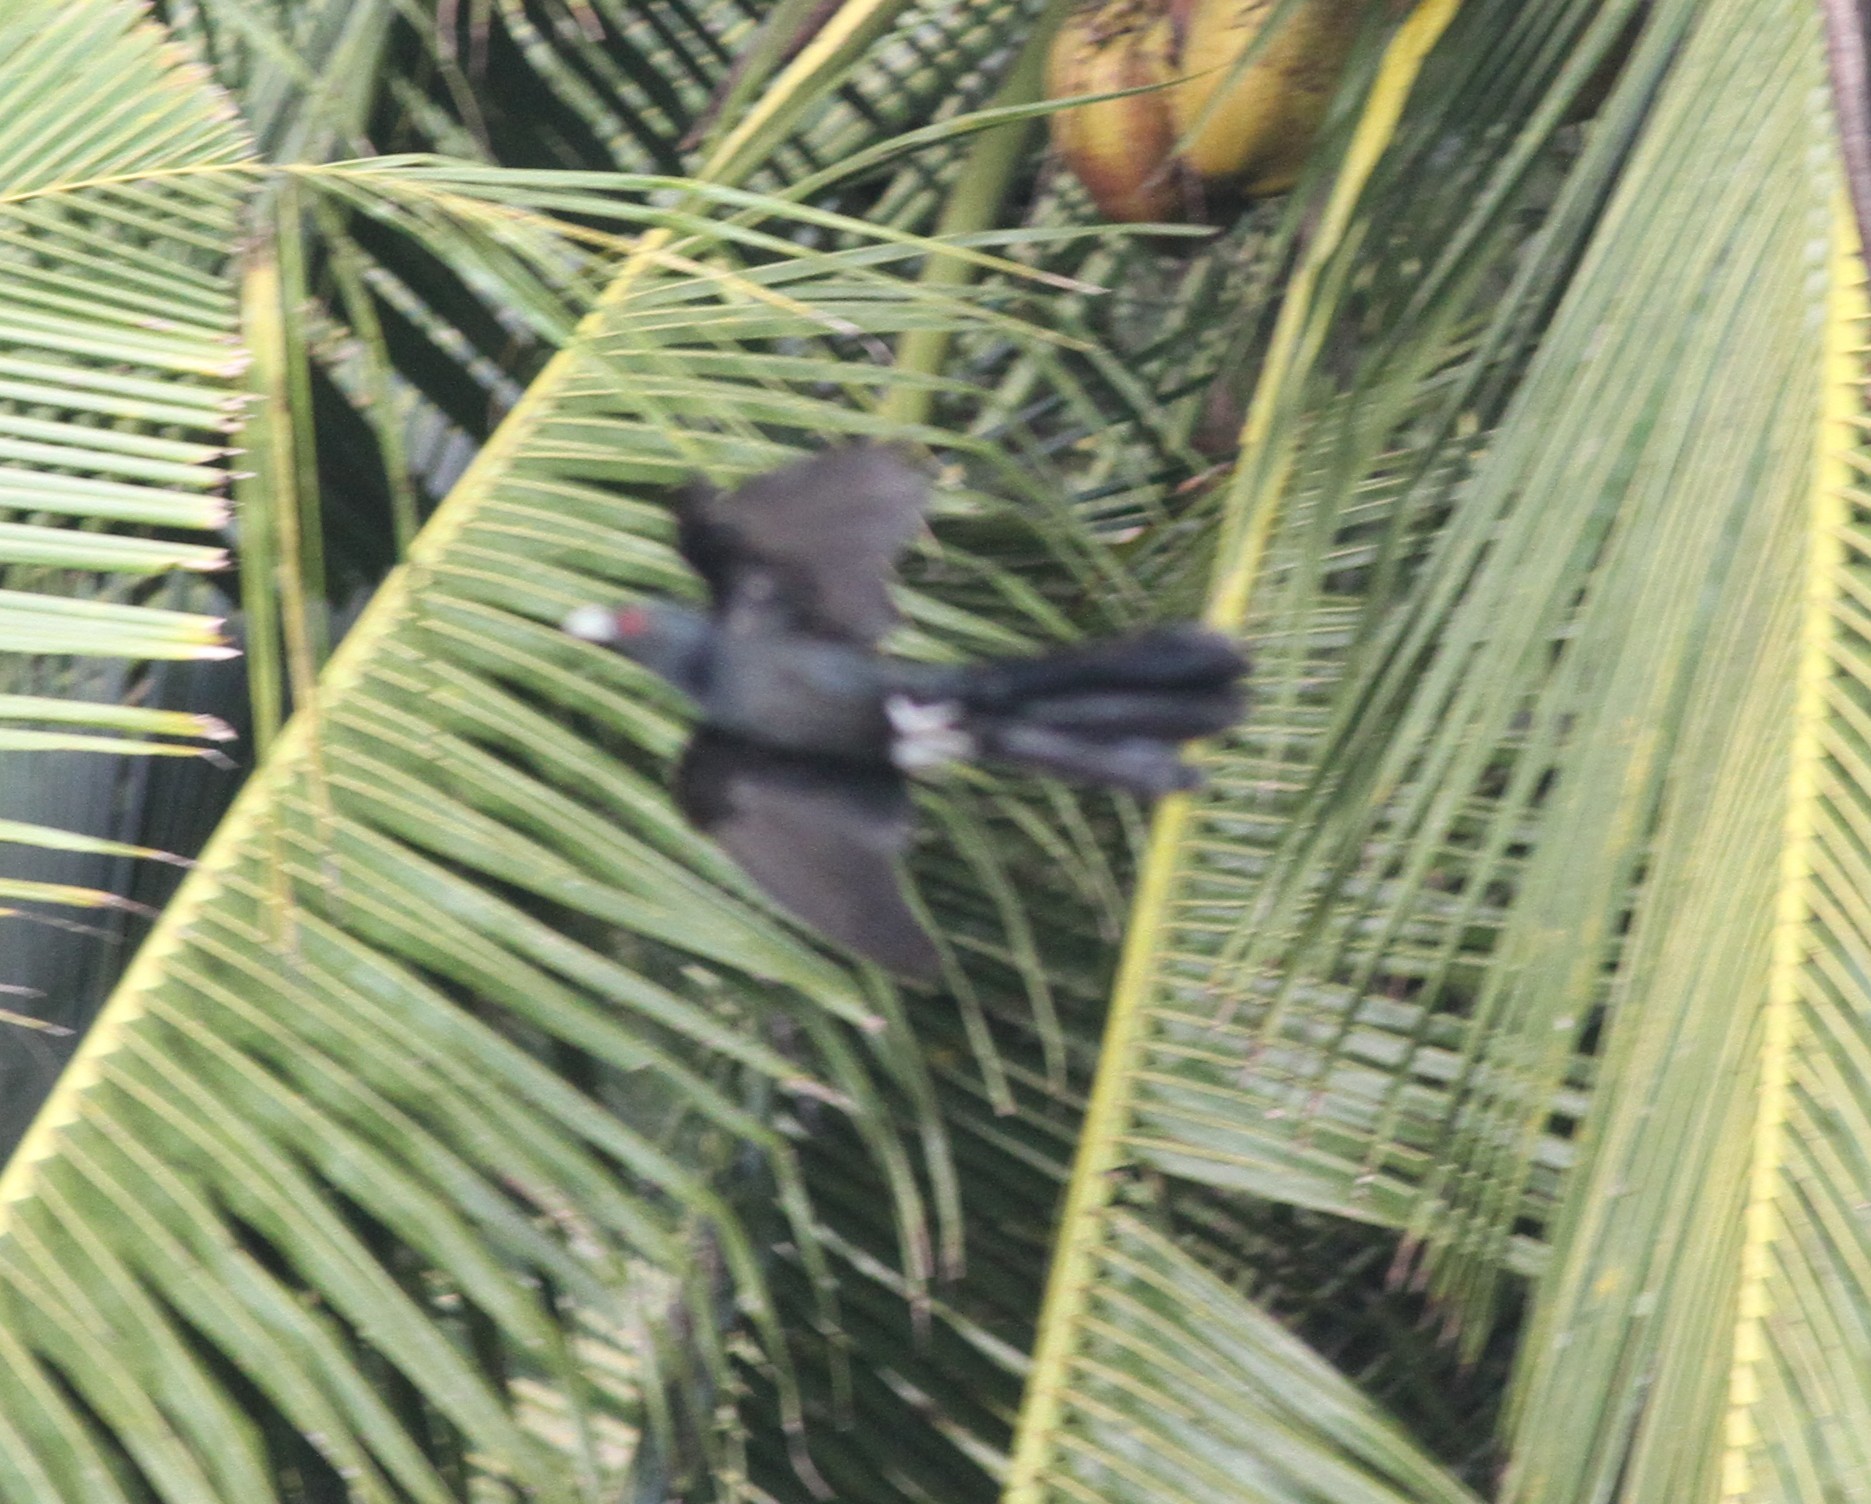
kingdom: Animalia
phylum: Chordata
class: Aves
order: Cuculiformes
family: Cuculidae
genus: Eudynamys
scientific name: Eudynamys scolopaceus
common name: Asian koel
